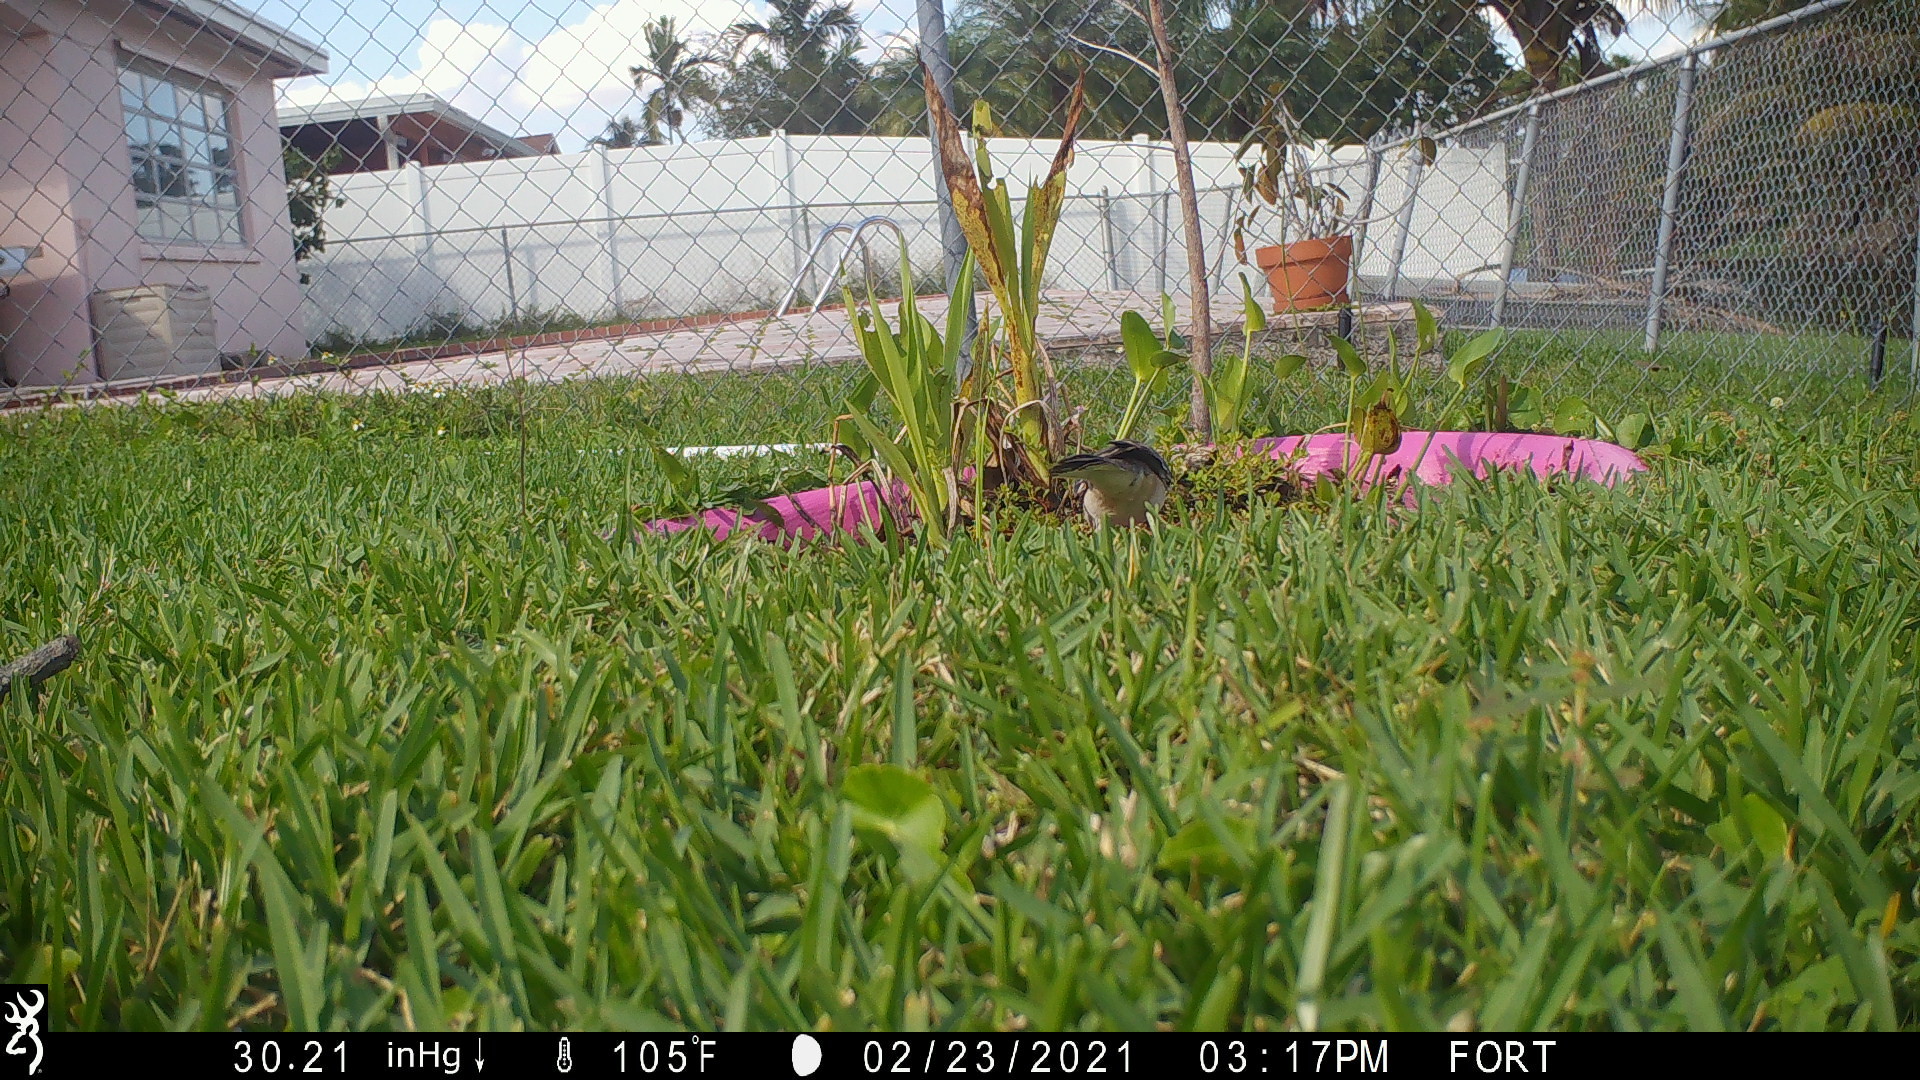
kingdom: Animalia
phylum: Chordata
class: Aves
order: Passeriformes
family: Mimidae
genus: Mimus
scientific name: Mimus polyglottos
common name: Northern mockingbird
